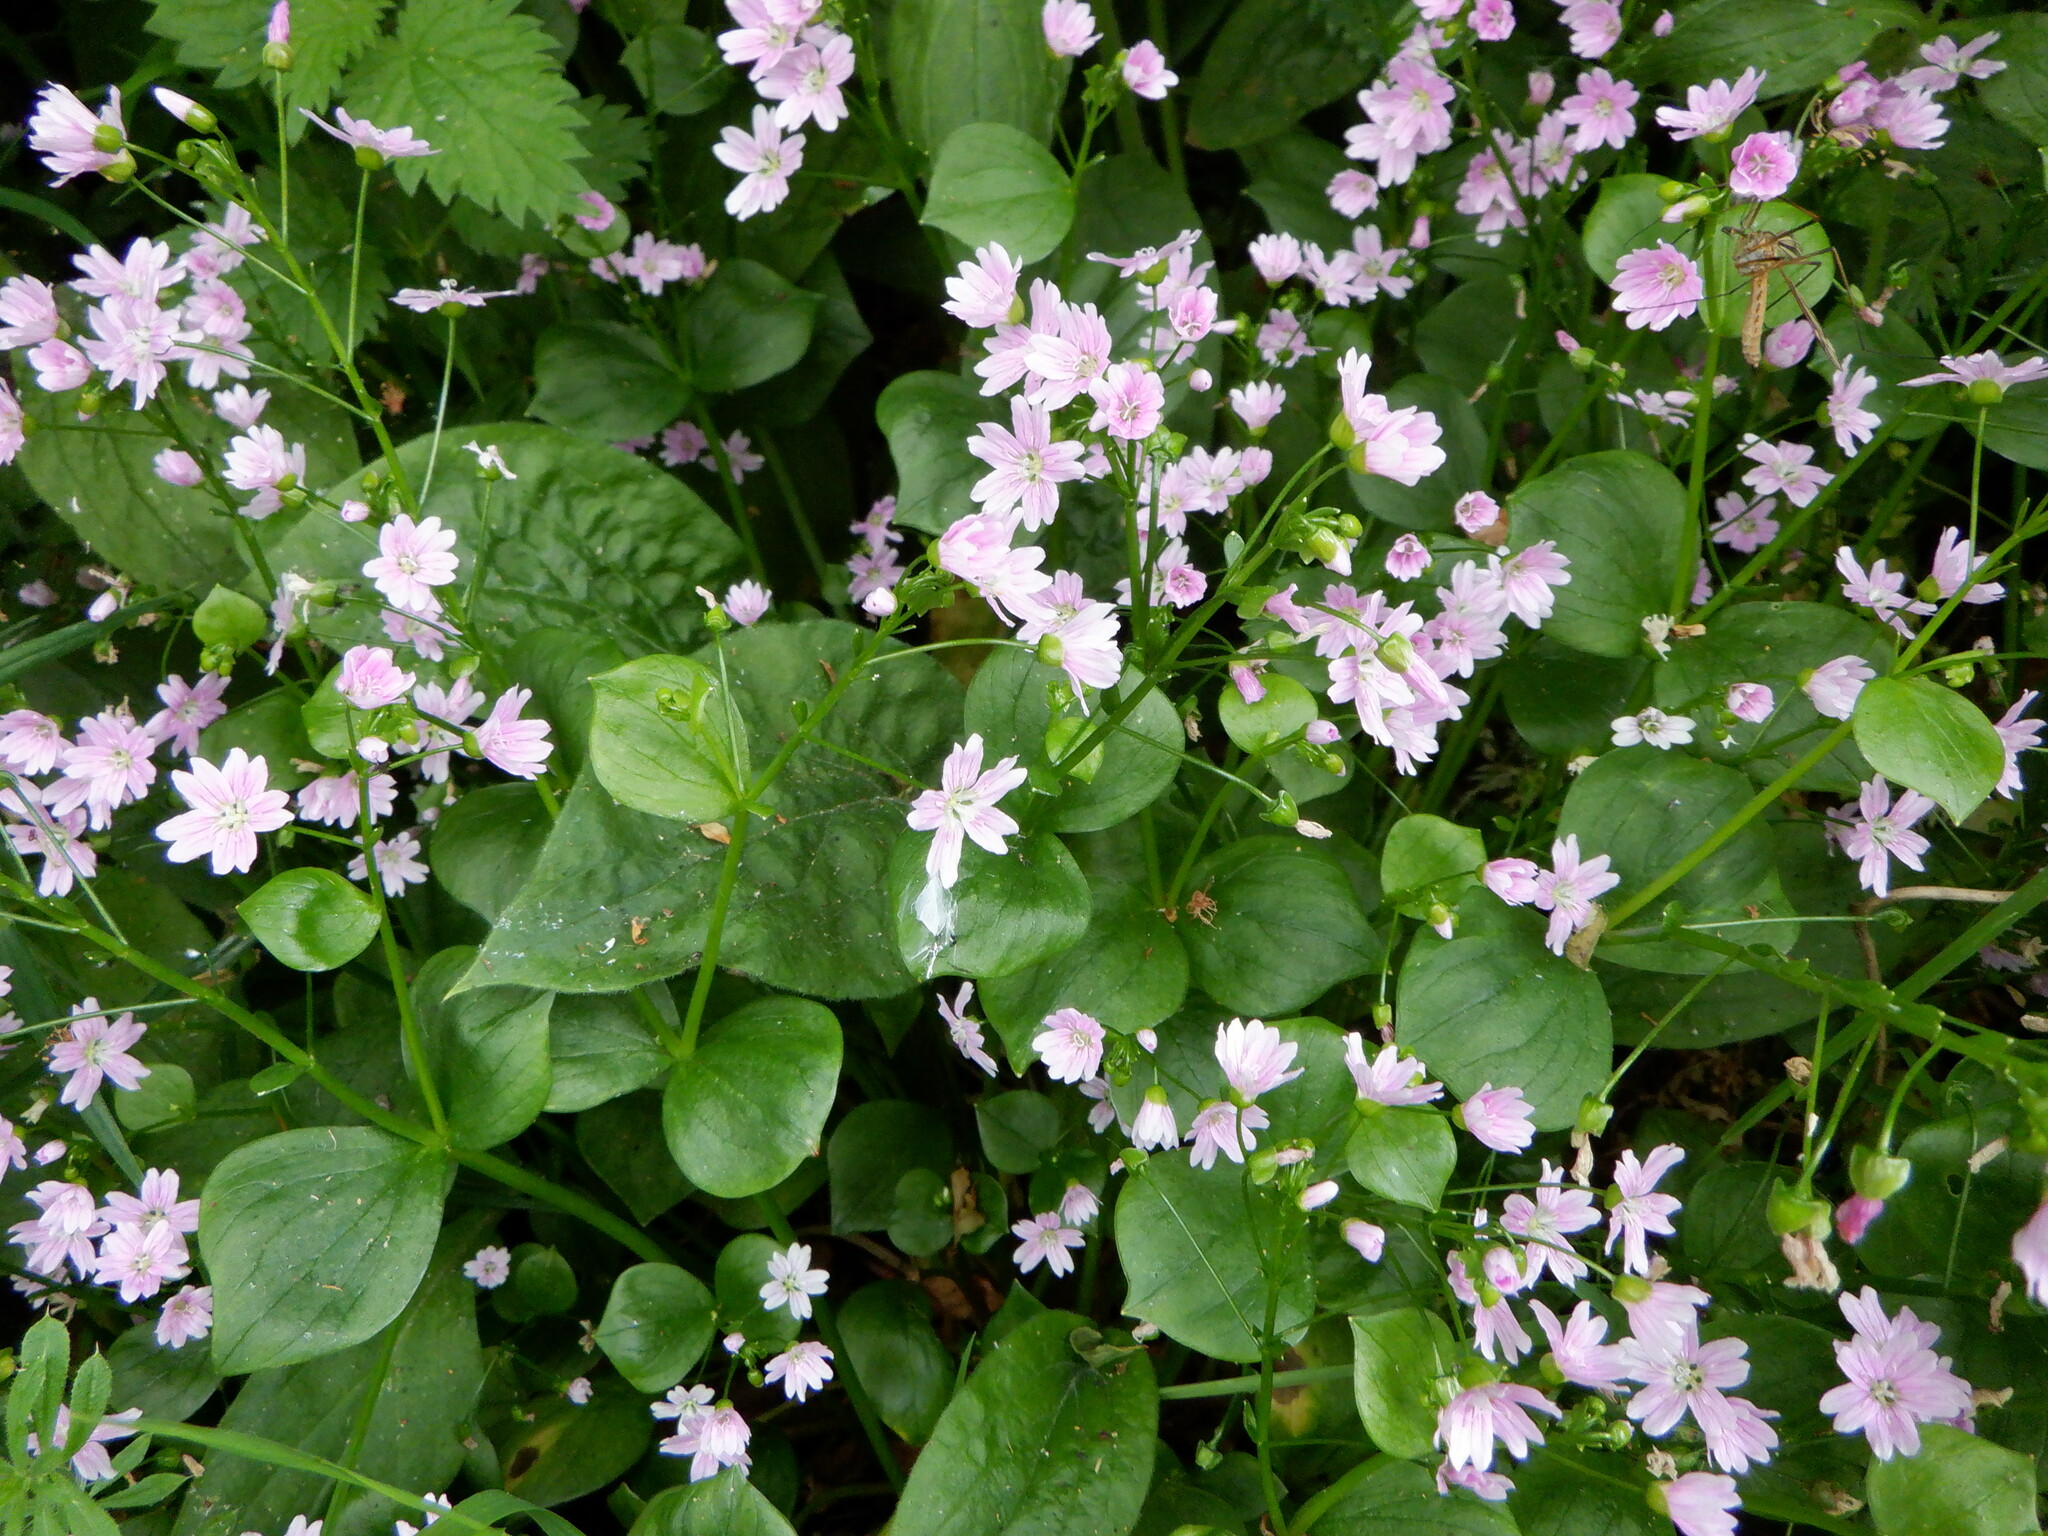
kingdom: Plantae
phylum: Tracheophyta
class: Magnoliopsida
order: Caryophyllales
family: Montiaceae
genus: Claytonia
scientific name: Claytonia sibirica
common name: Pink purslane
